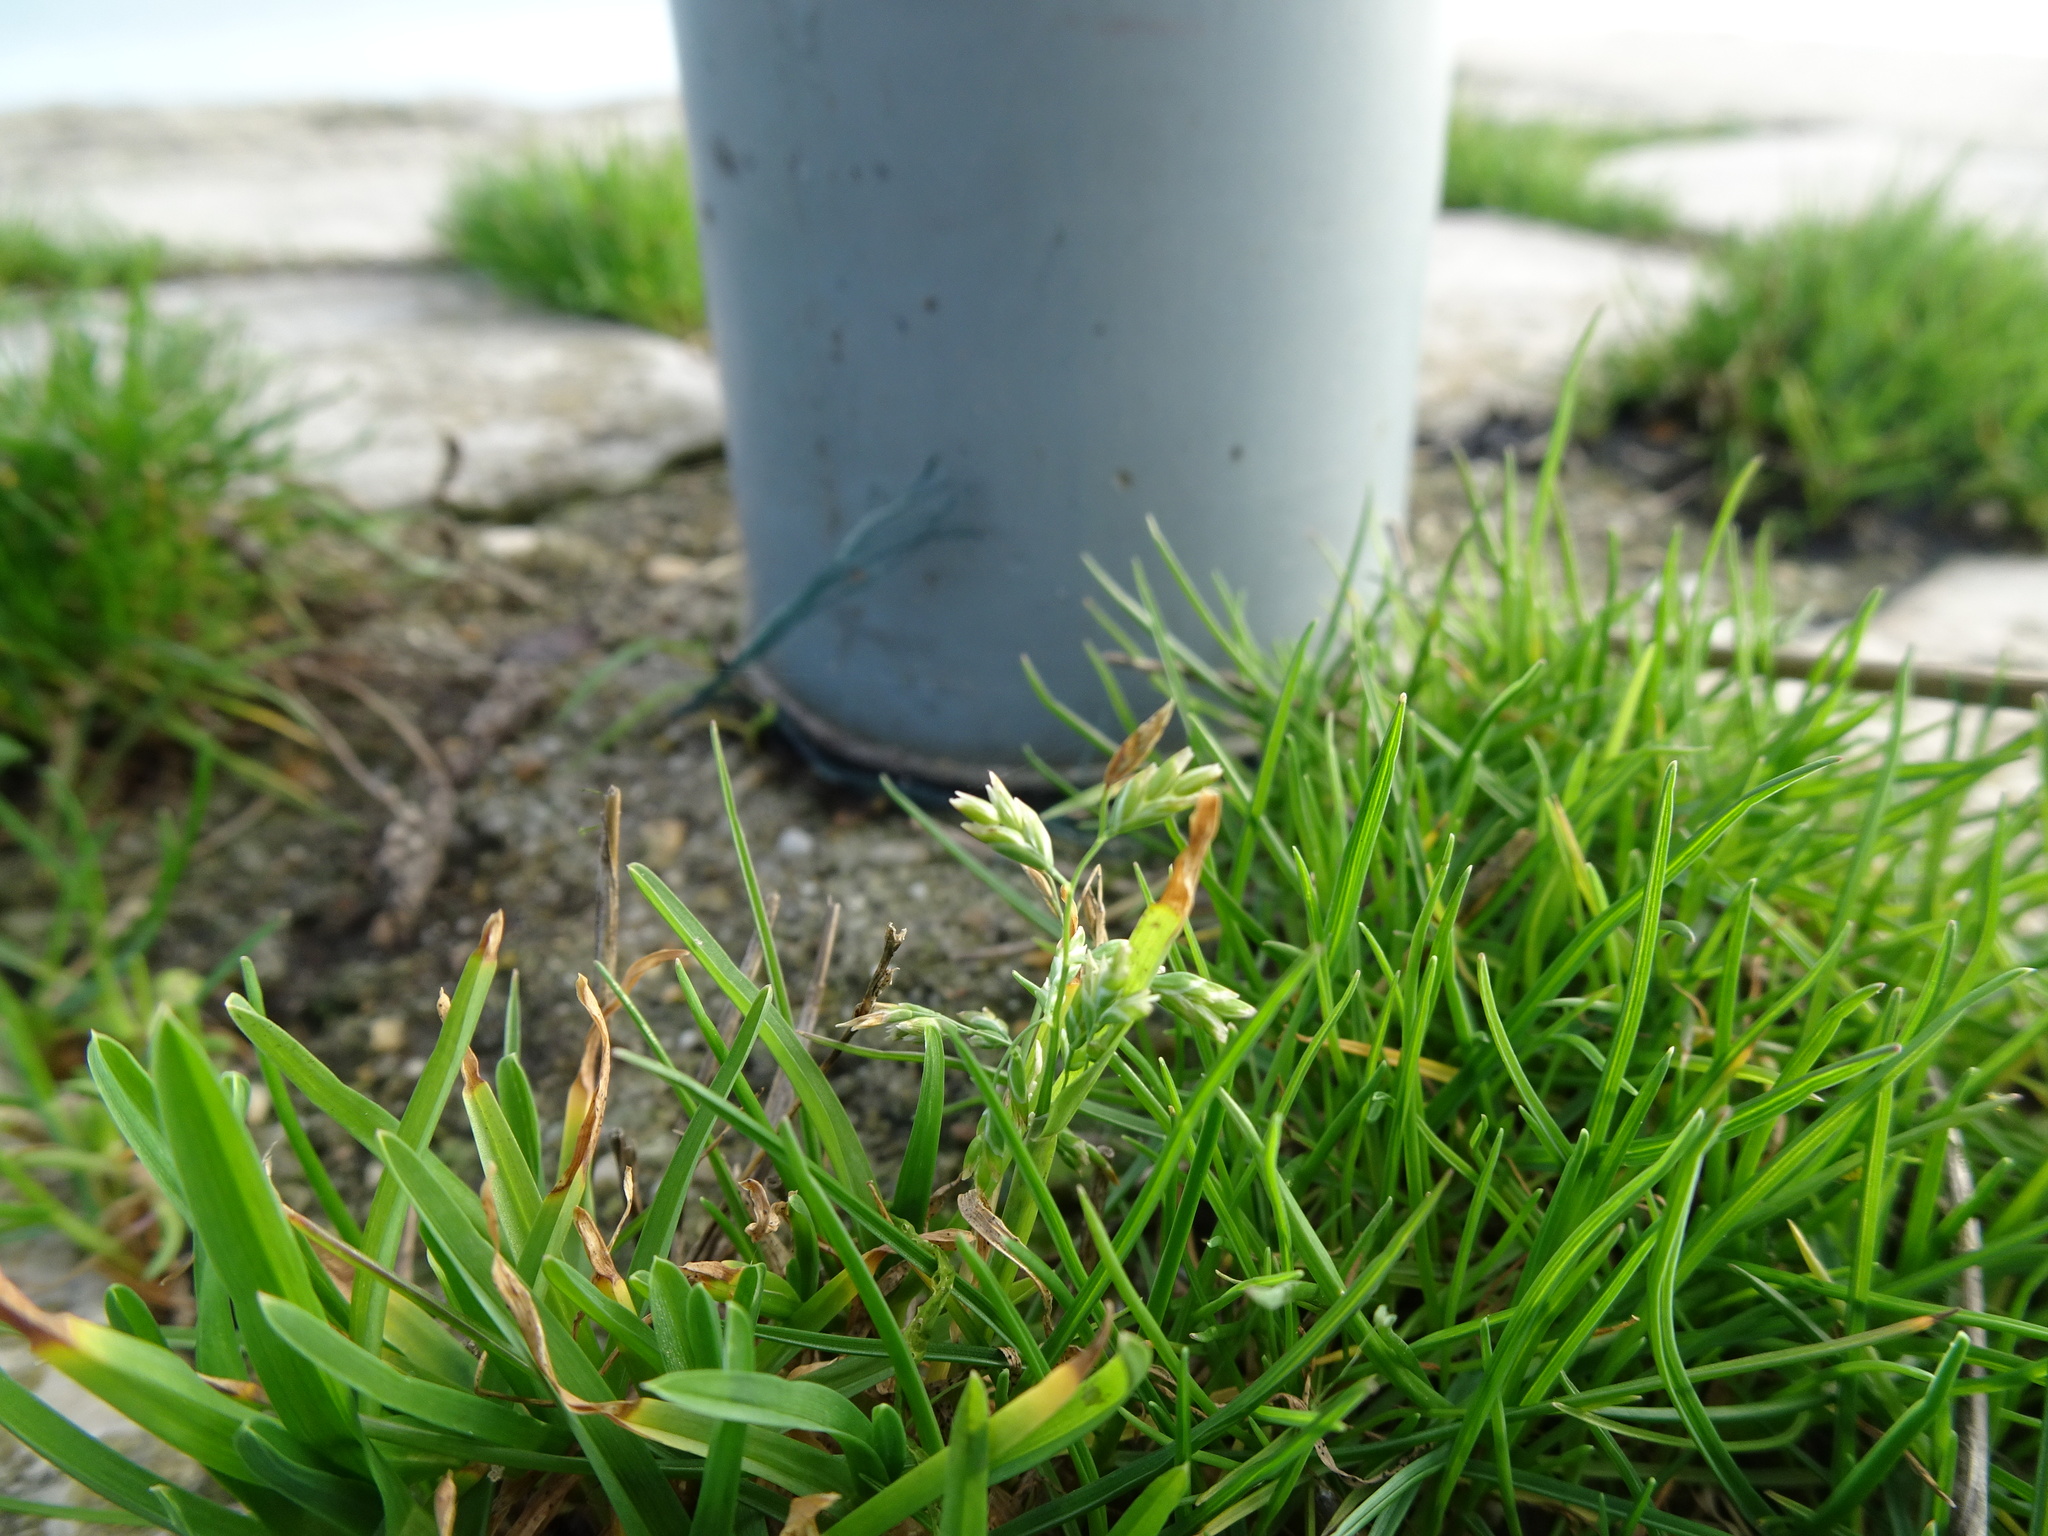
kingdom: Plantae
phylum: Tracheophyta
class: Liliopsida
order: Poales
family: Poaceae
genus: Poa
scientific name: Poa annua
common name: Annual bluegrass
